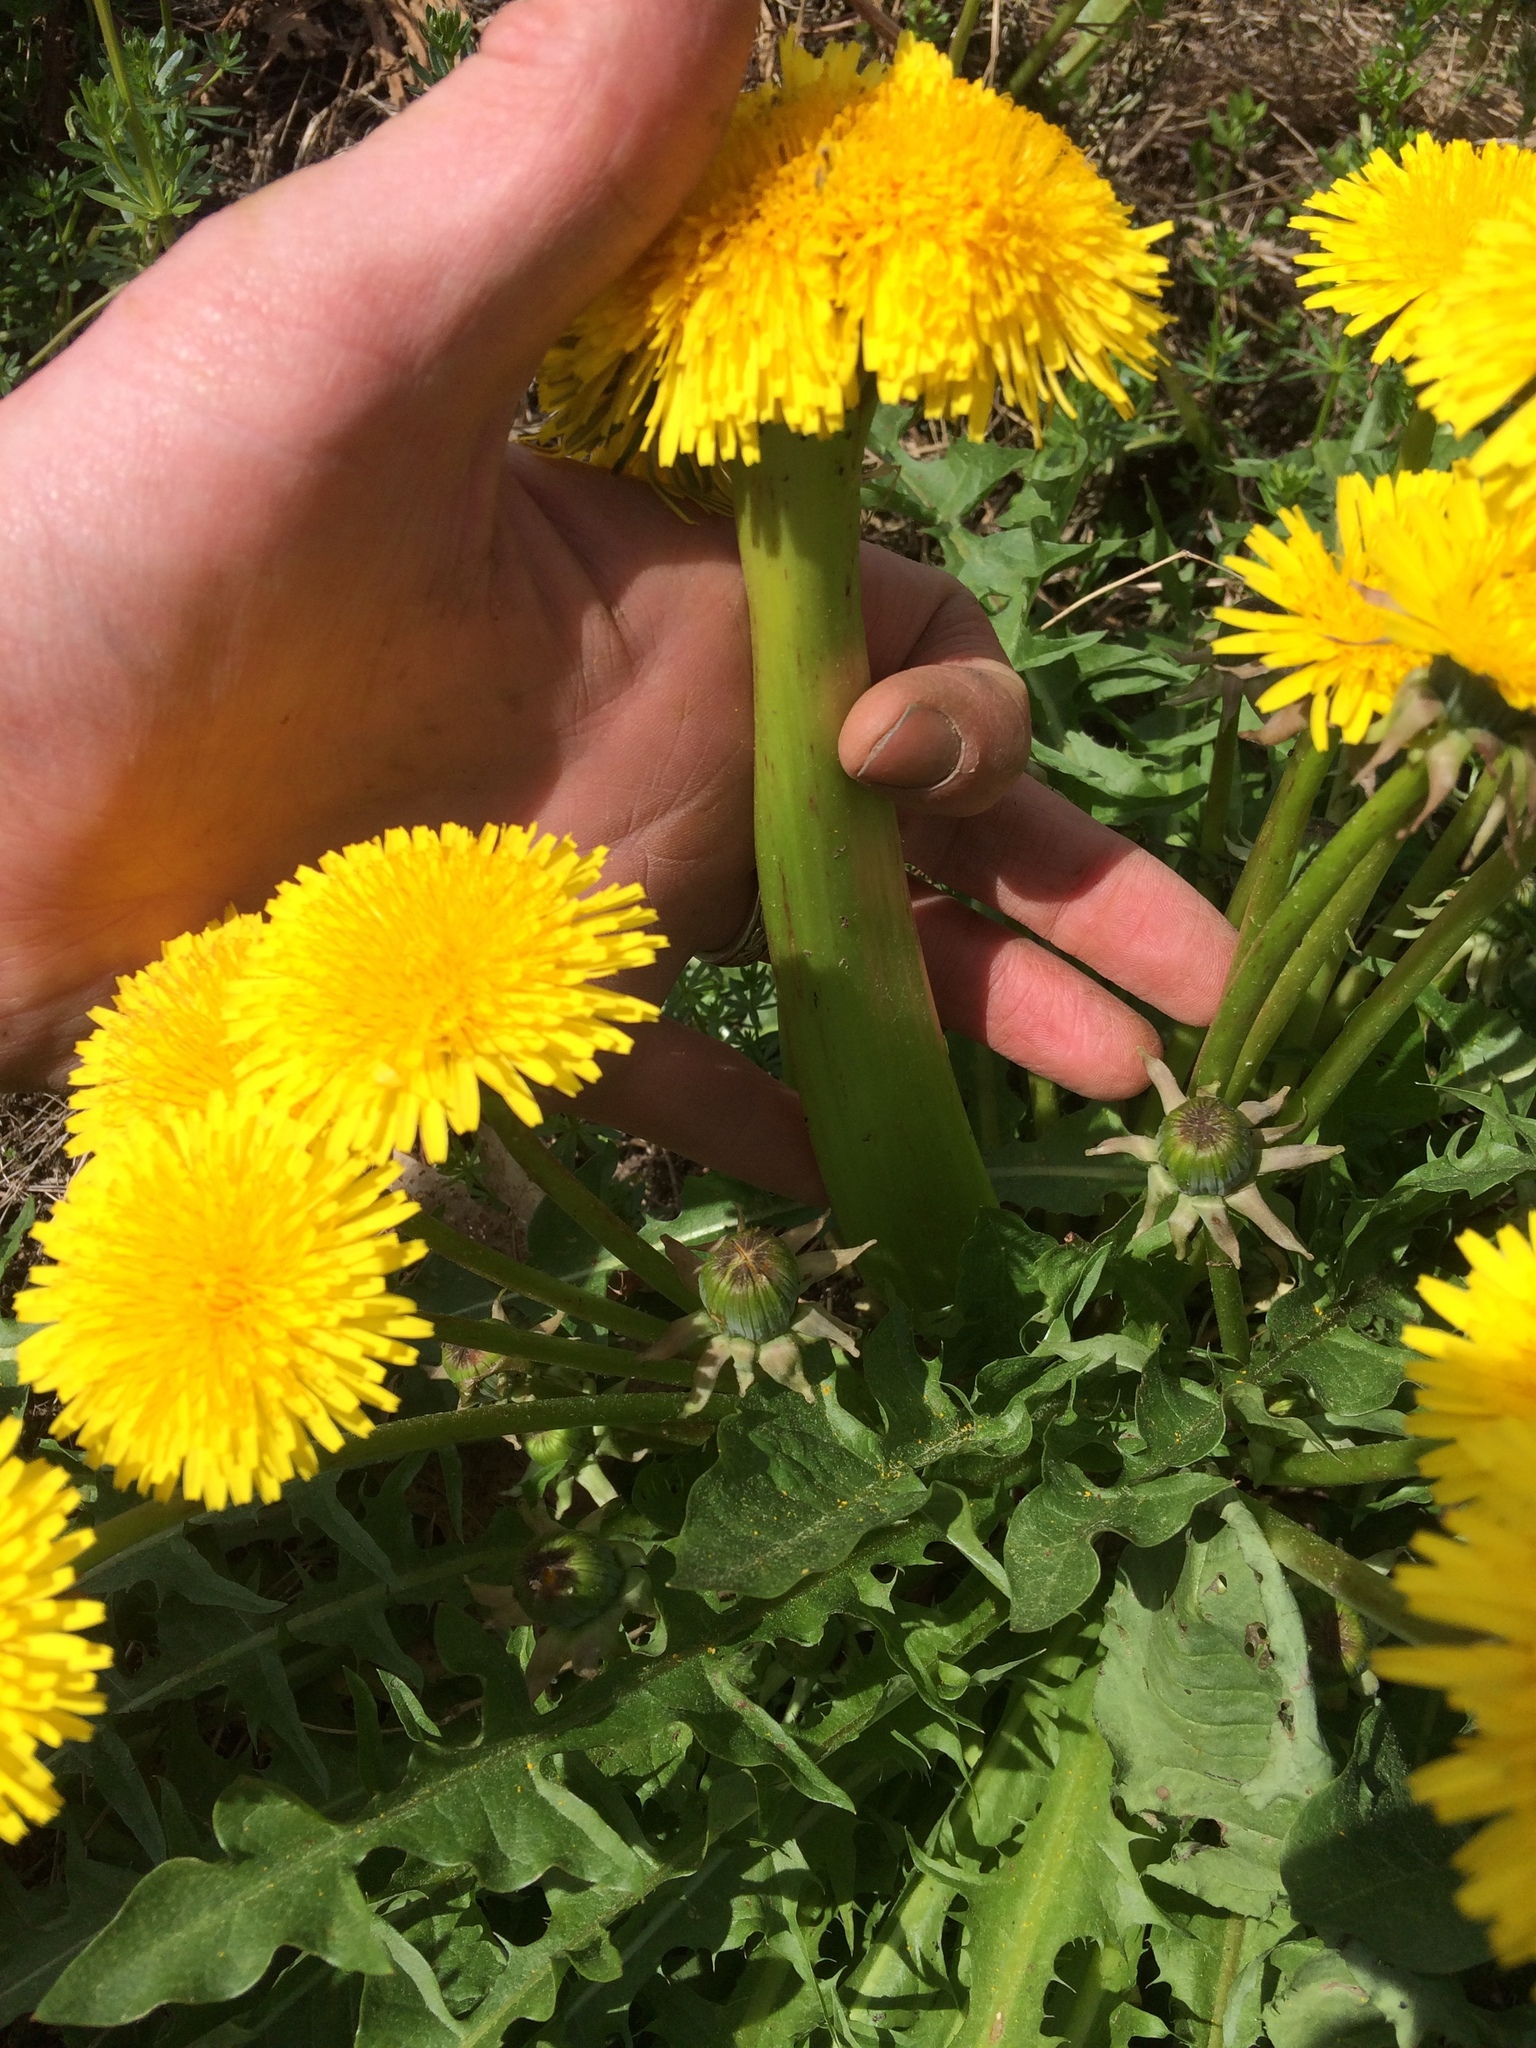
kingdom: Plantae
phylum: Tracheophyta
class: Magnoliopsida
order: Asterales
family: Asteraceae
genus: Taraxacum
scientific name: Taraxacum officinale
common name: Common dandelion
